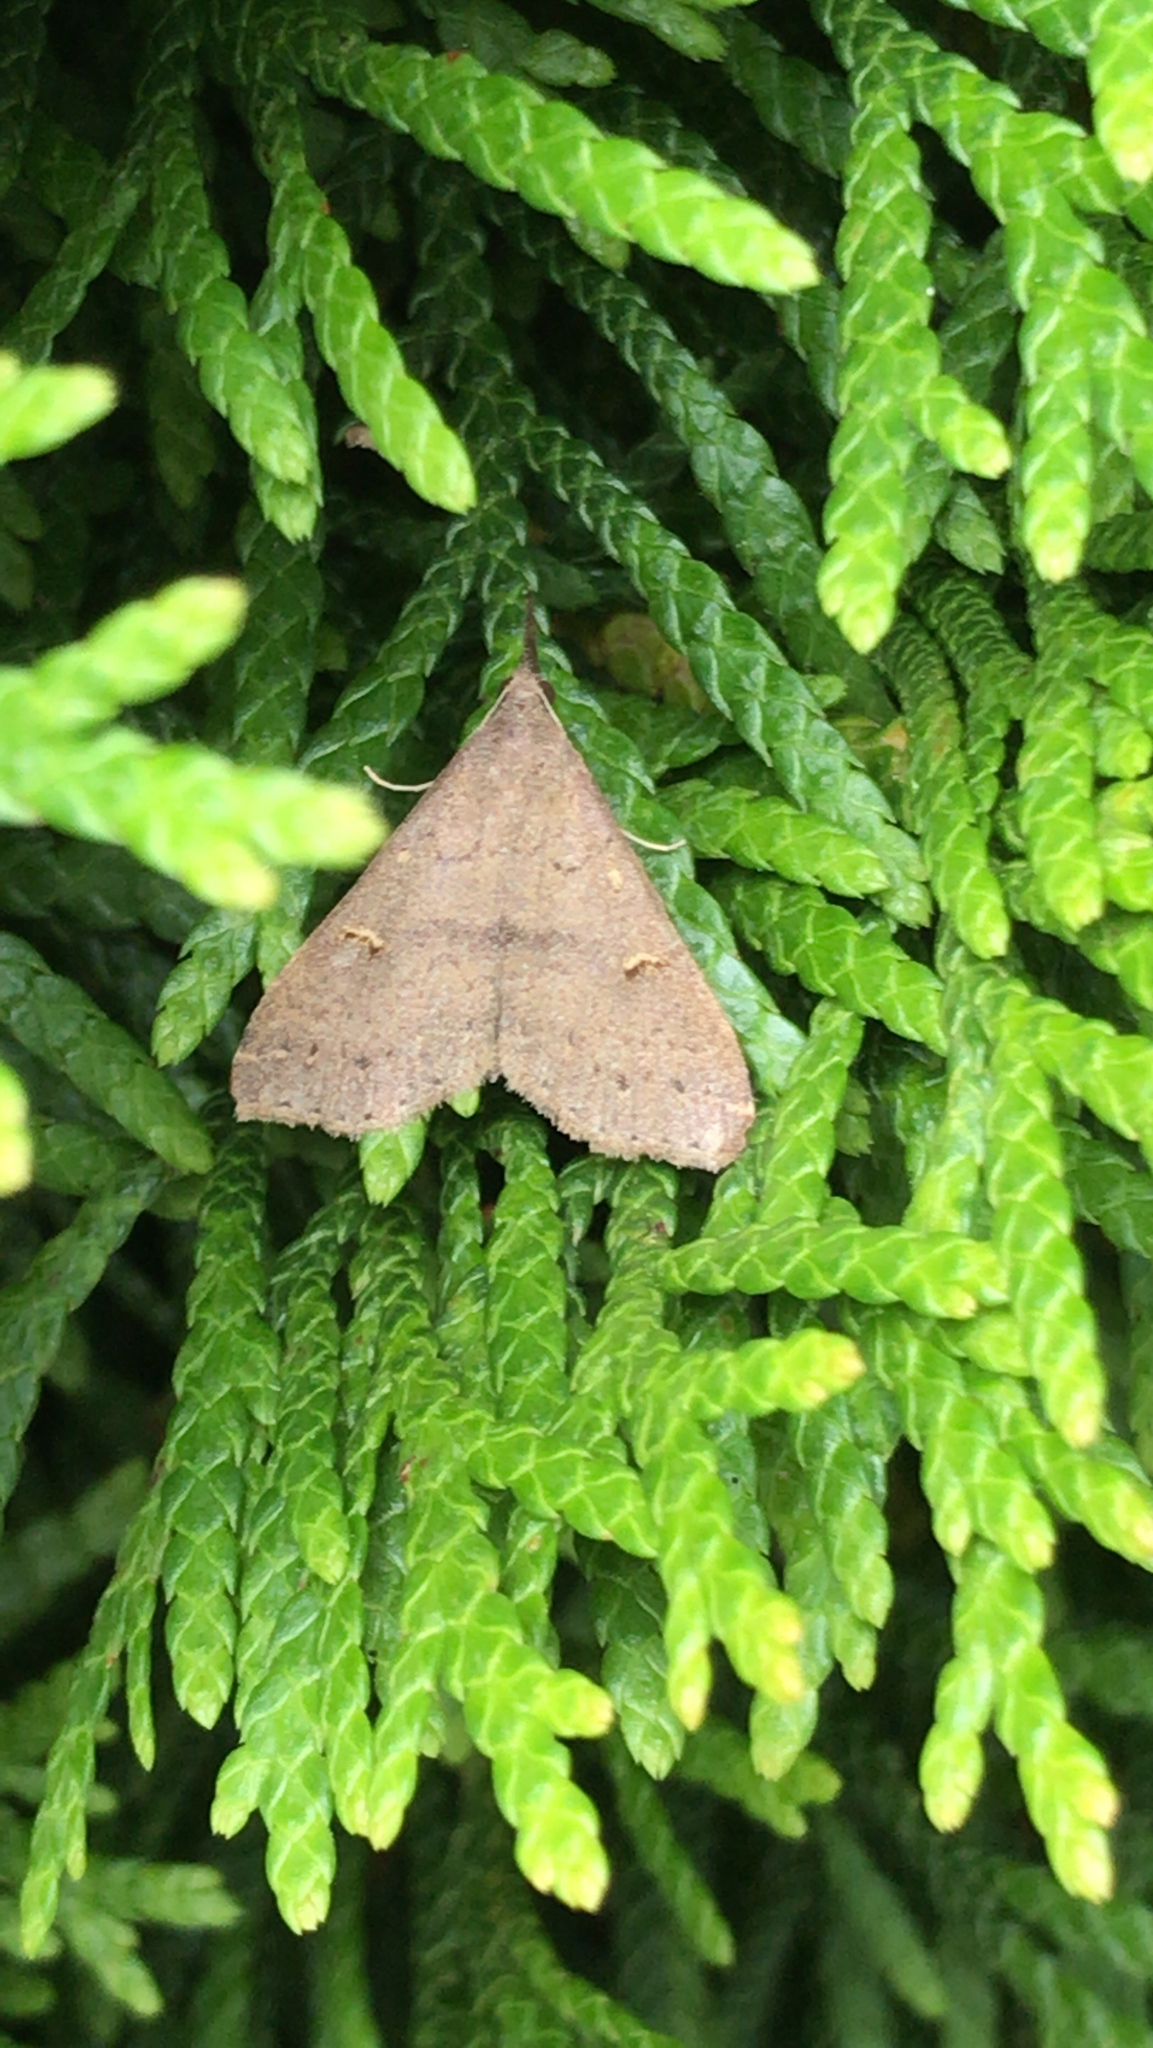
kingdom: Animalia
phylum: Arthropoda
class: Insecta
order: Lepidoptera
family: Erebidae
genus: Renia
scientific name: Renia adspergillus
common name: Speckled renia moth
